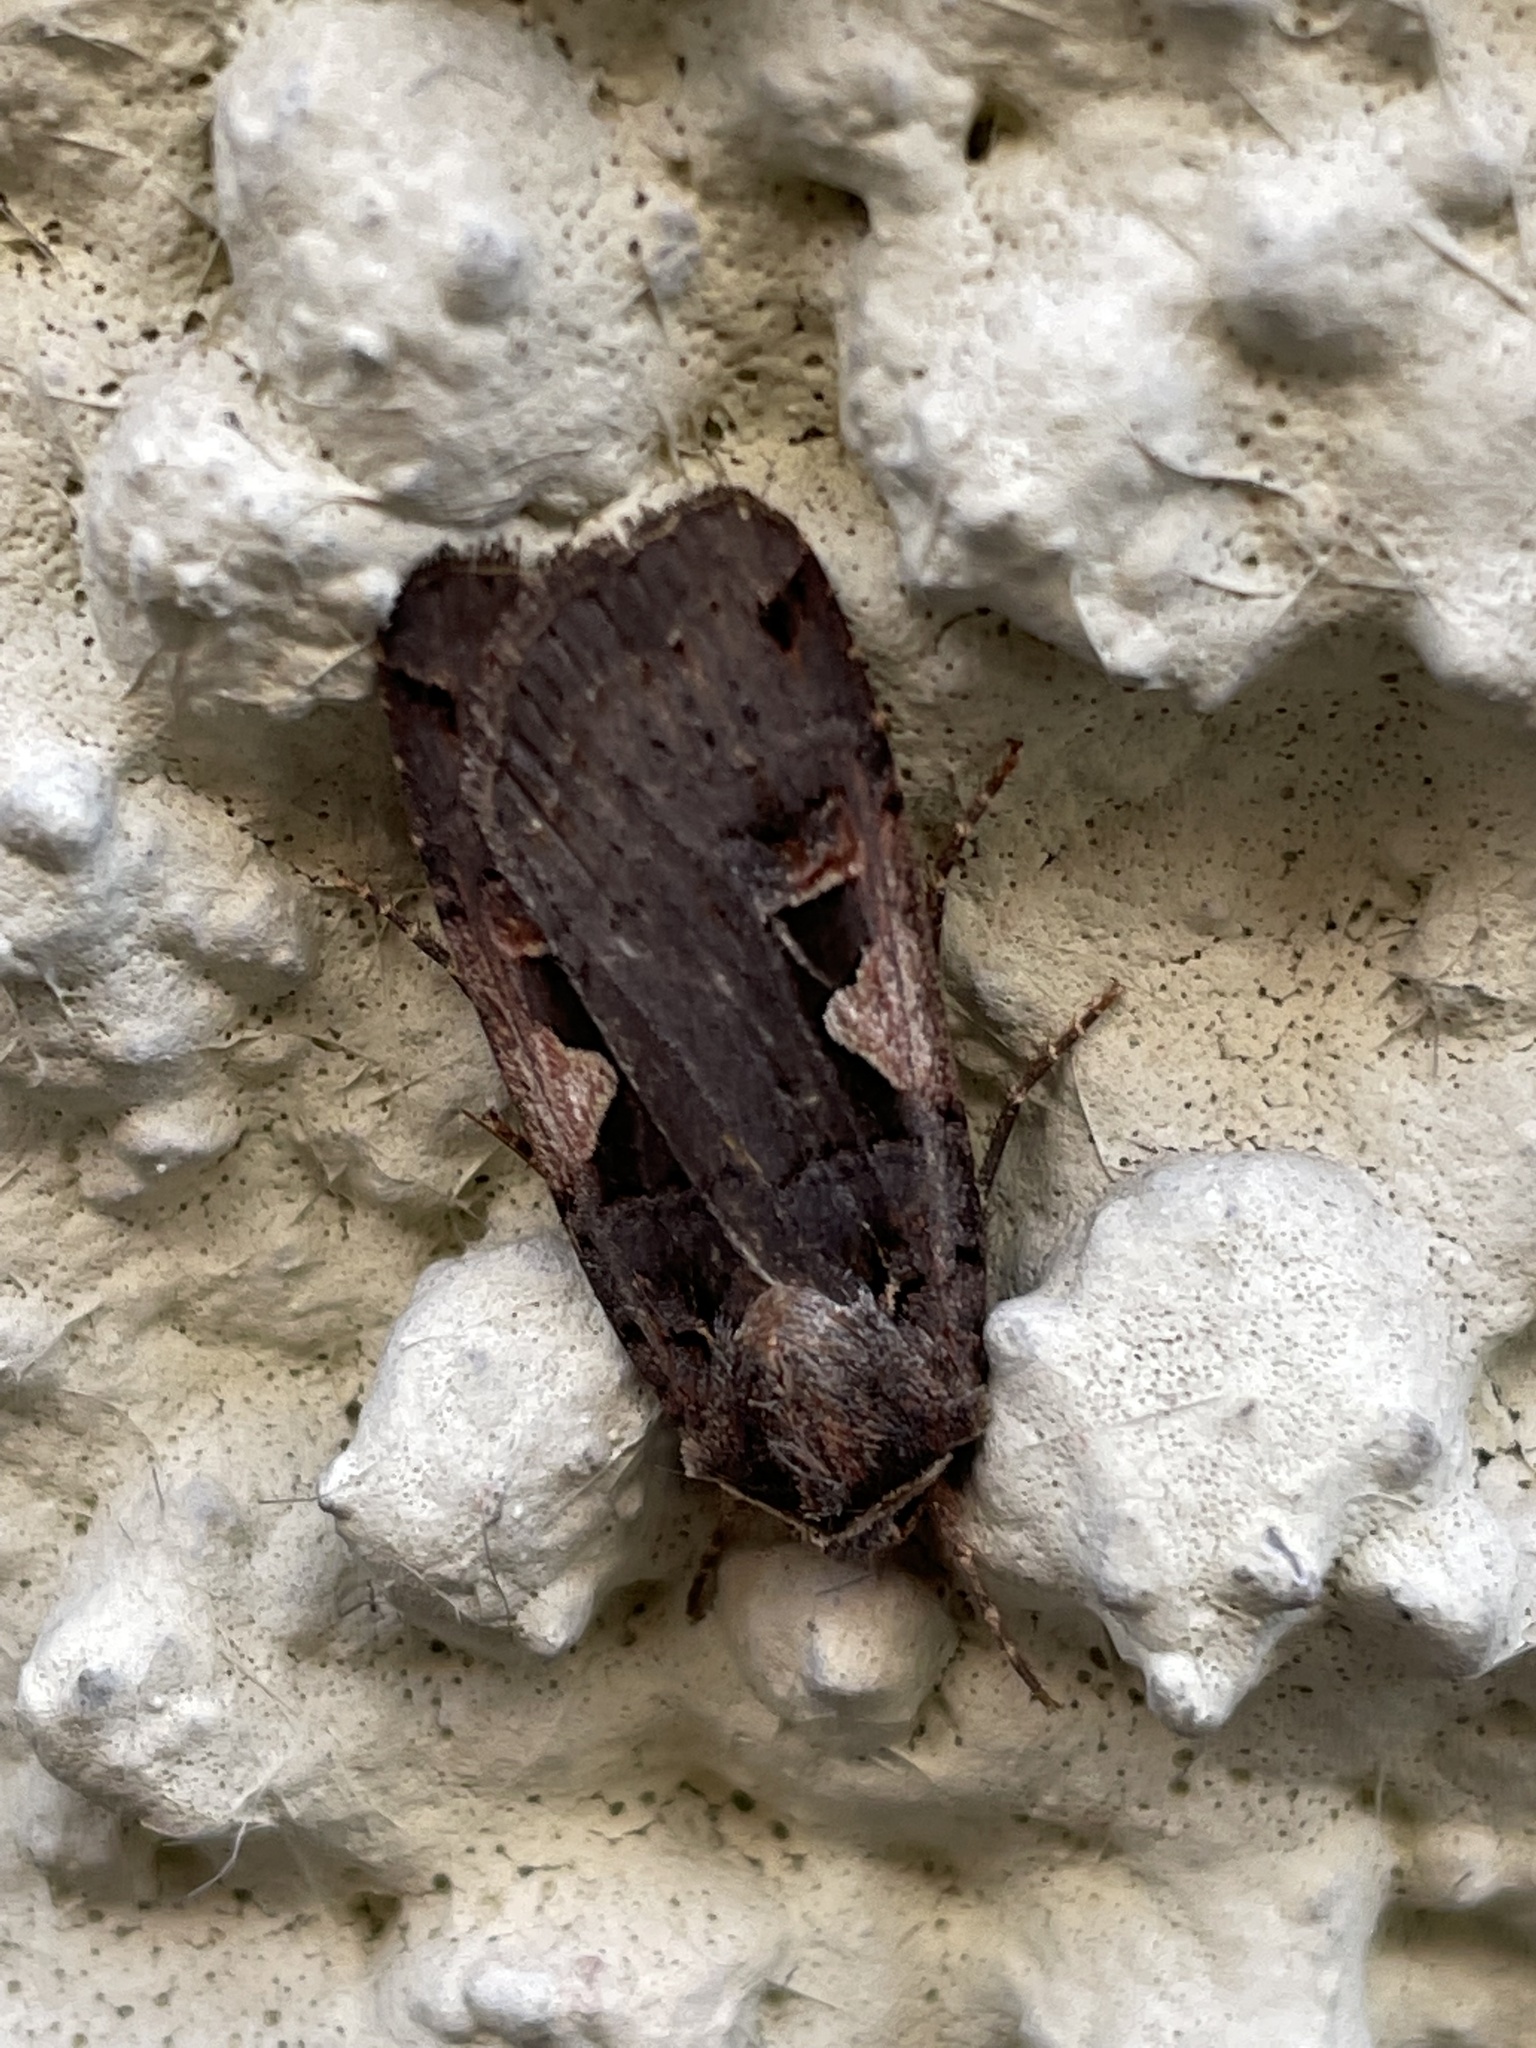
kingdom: Animalia
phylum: Arthropoda
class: Insecta
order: Lepidoptera
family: Noctuidae
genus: Xestia
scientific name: Xestia c-nigrum
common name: Setaceous hebrew character
